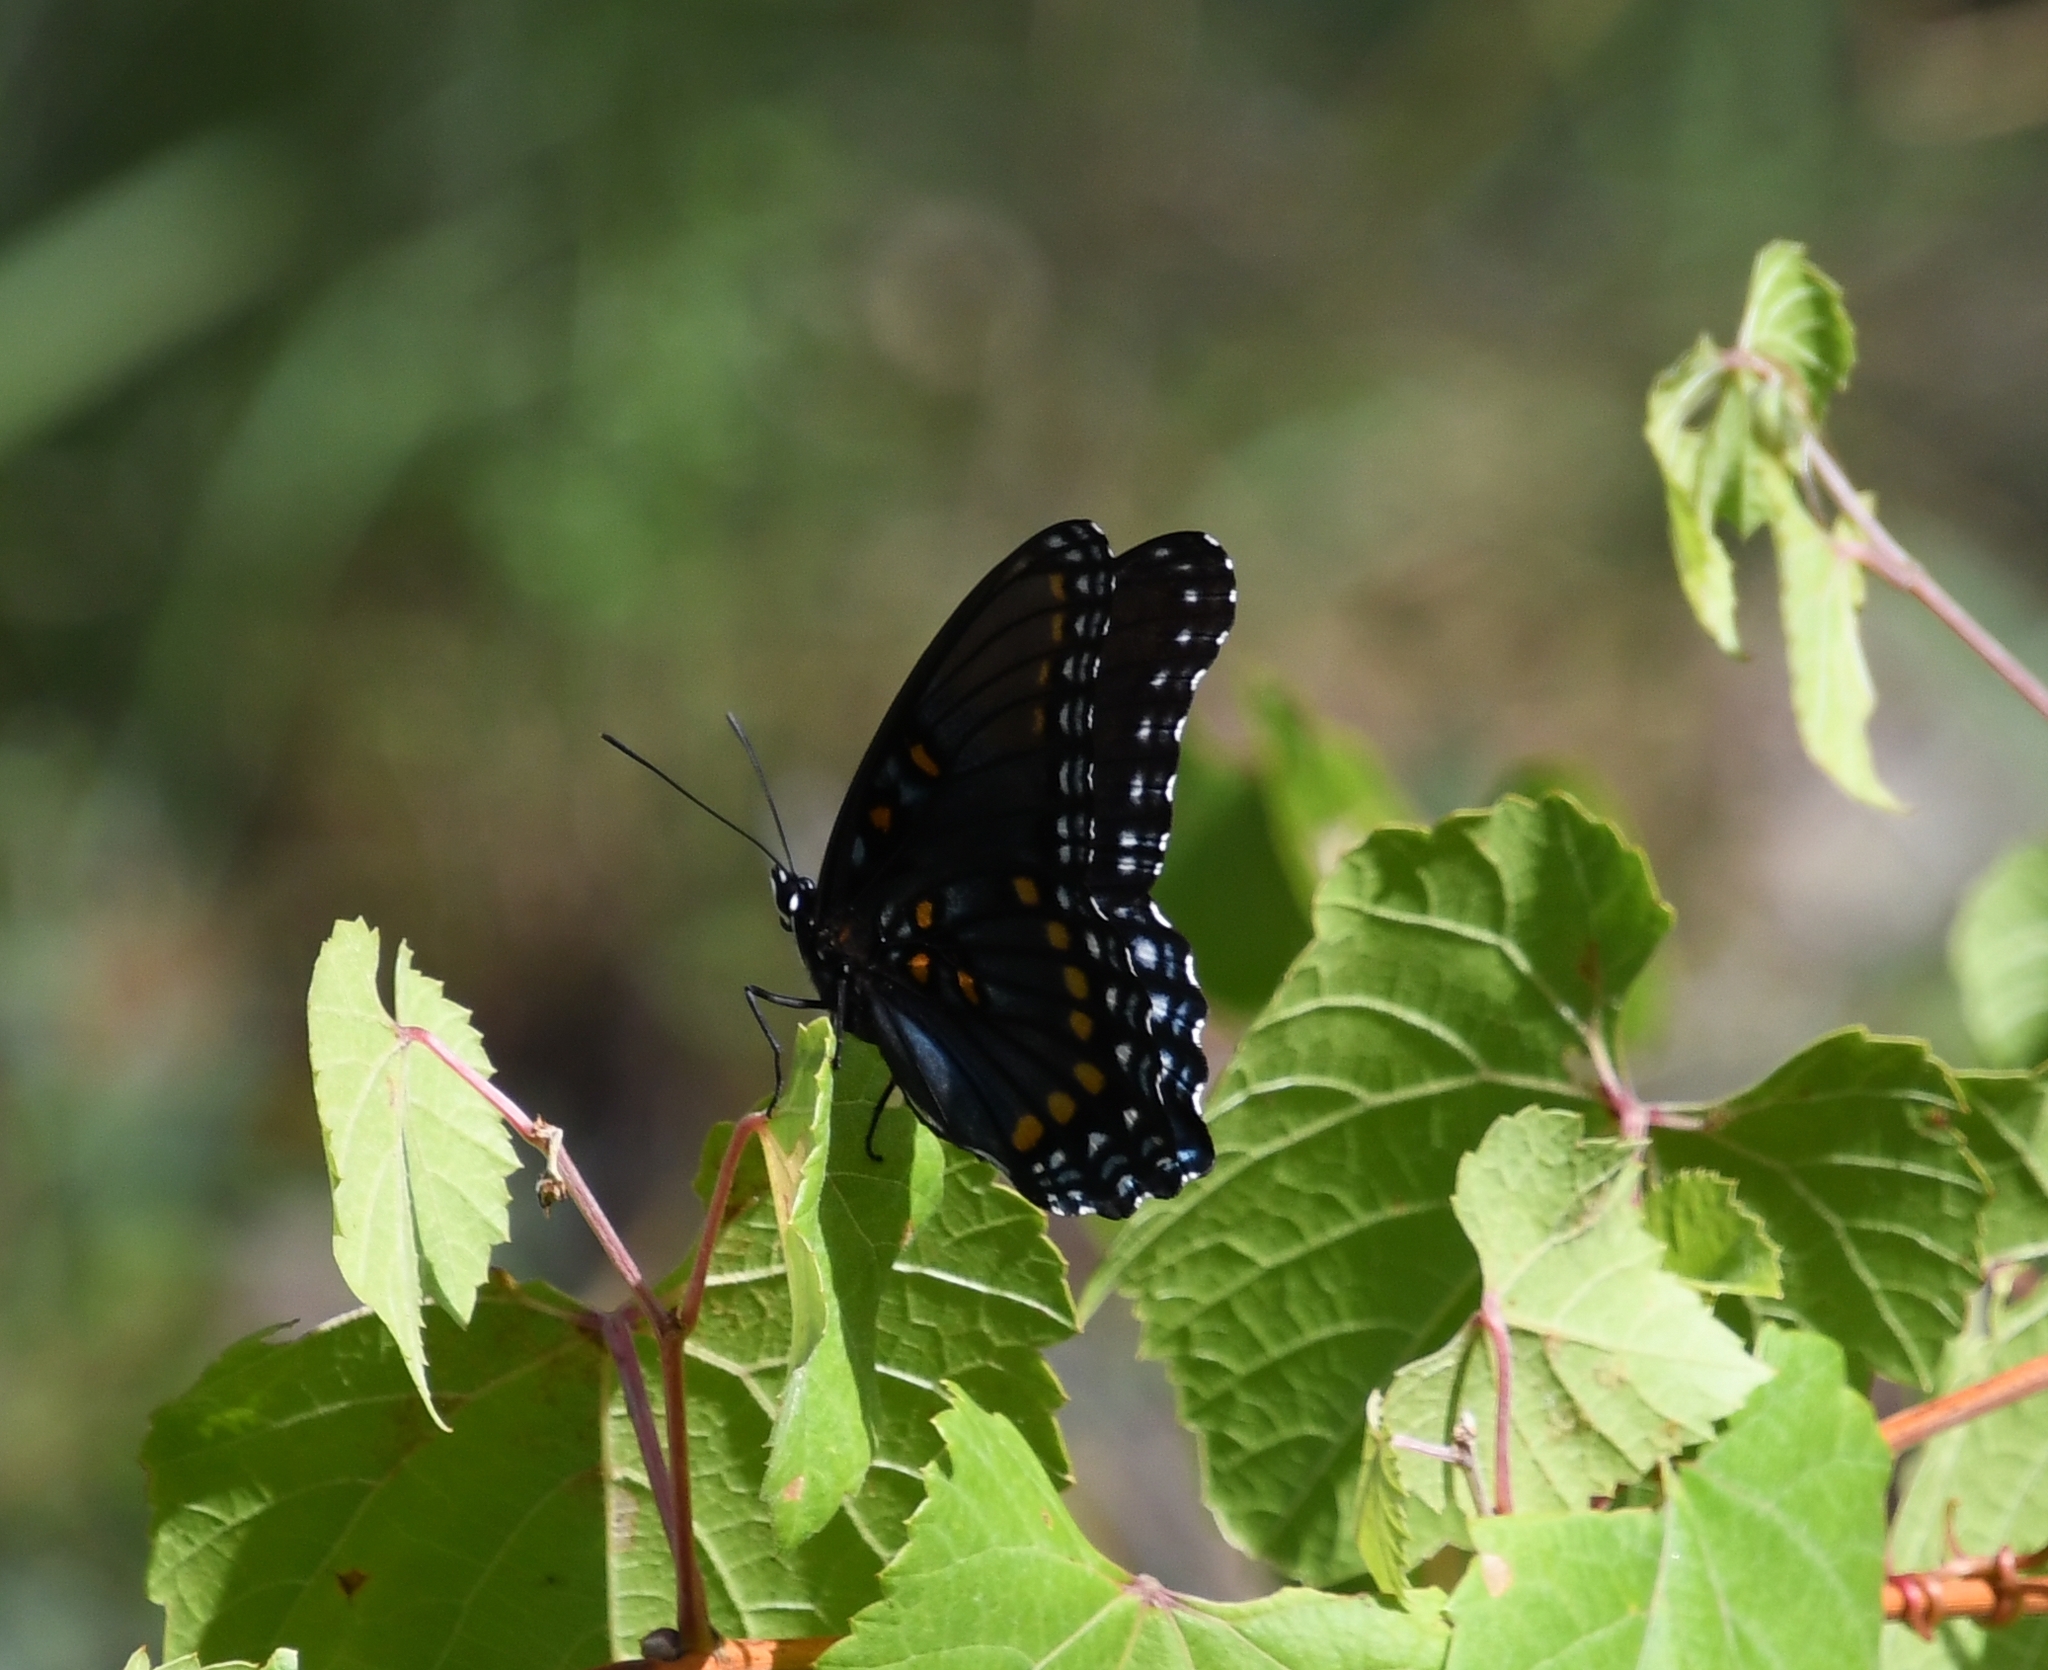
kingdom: Animalia
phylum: Arthropoda
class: Insecta
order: Lepidoptera
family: Nymphalidae
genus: Limenitis
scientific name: Limenitis arthemis
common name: Red-spotted admiral
